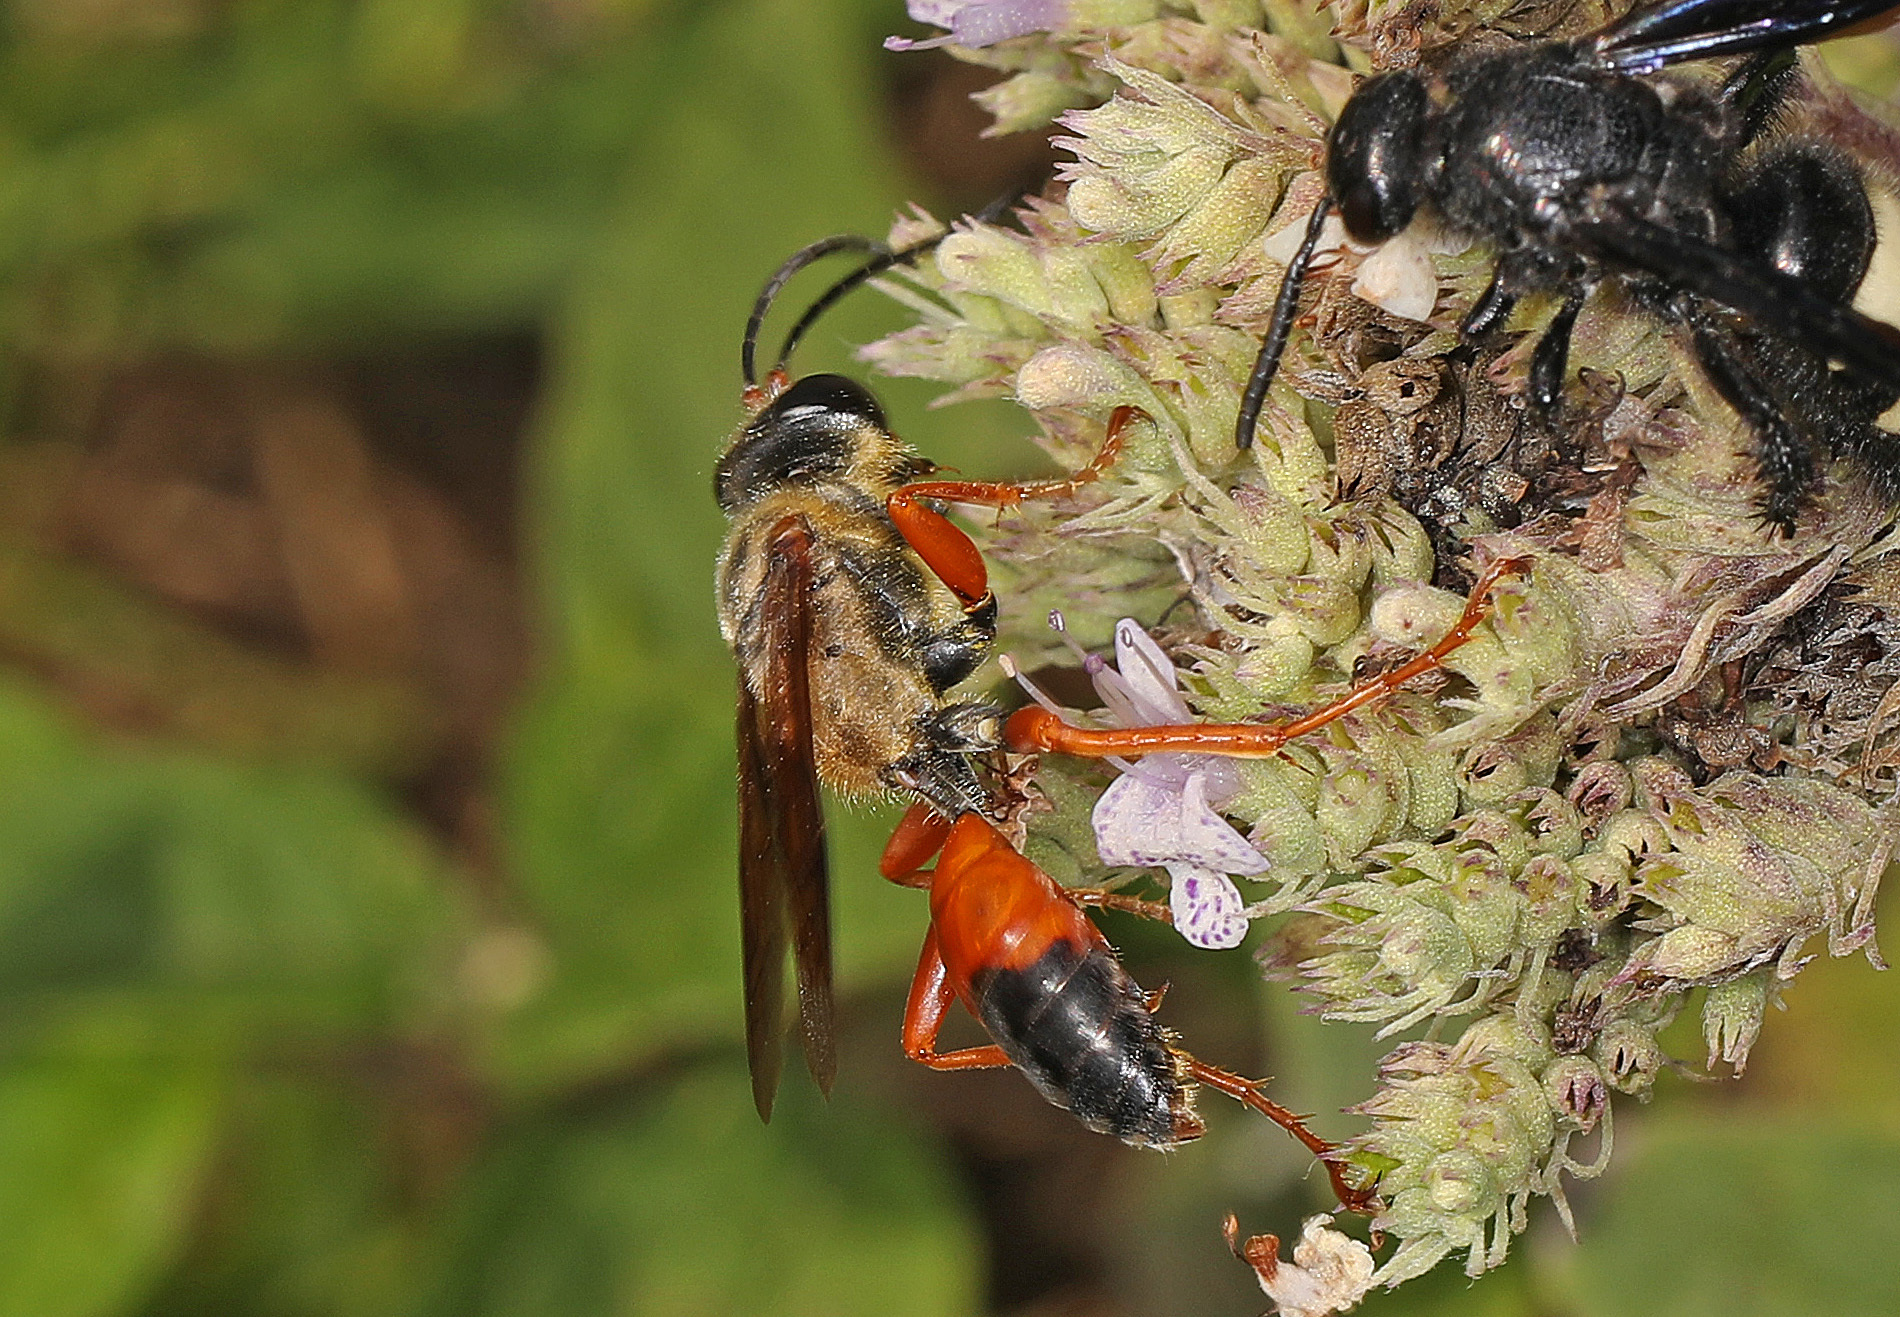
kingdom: Animalia
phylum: Arthropoda
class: Insecta
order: Hymenoptera
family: Sphecidae
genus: Sphex
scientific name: Sphex ichneumoneus
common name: Great golden digger wasp
